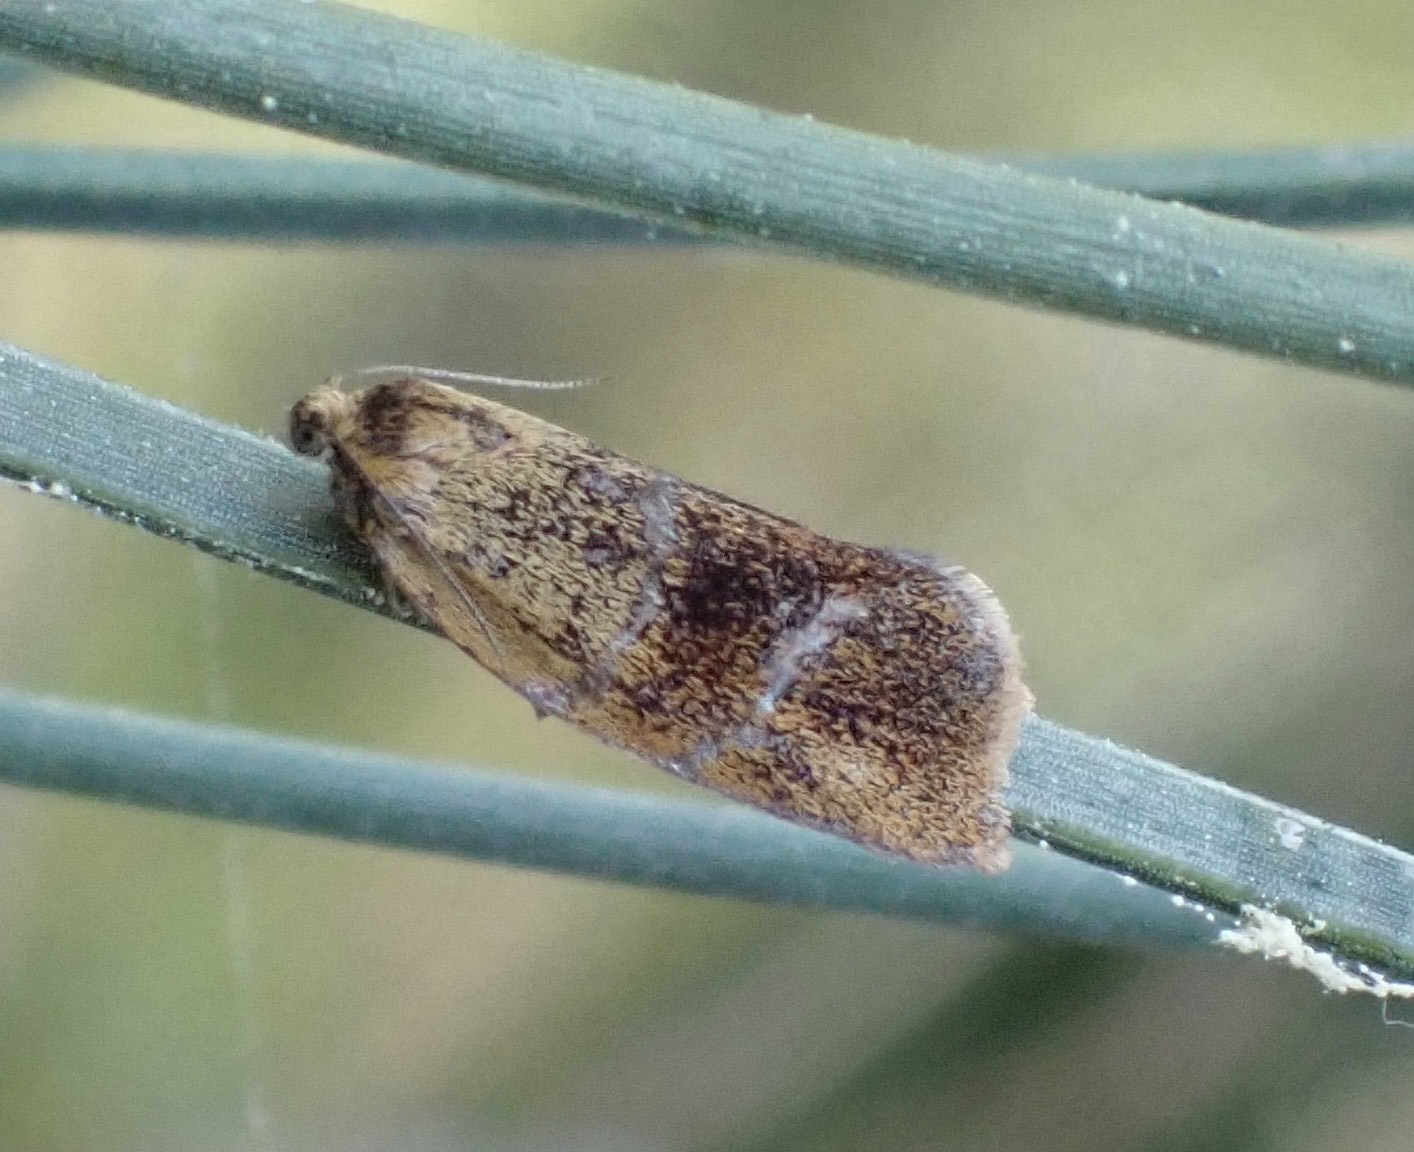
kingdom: Animalia
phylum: Arthropoda
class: Insecta
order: Lepidoptera
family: Tortricidae
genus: Ptycholoma
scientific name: Ptycholoma lecheana
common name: Leches twist moth
